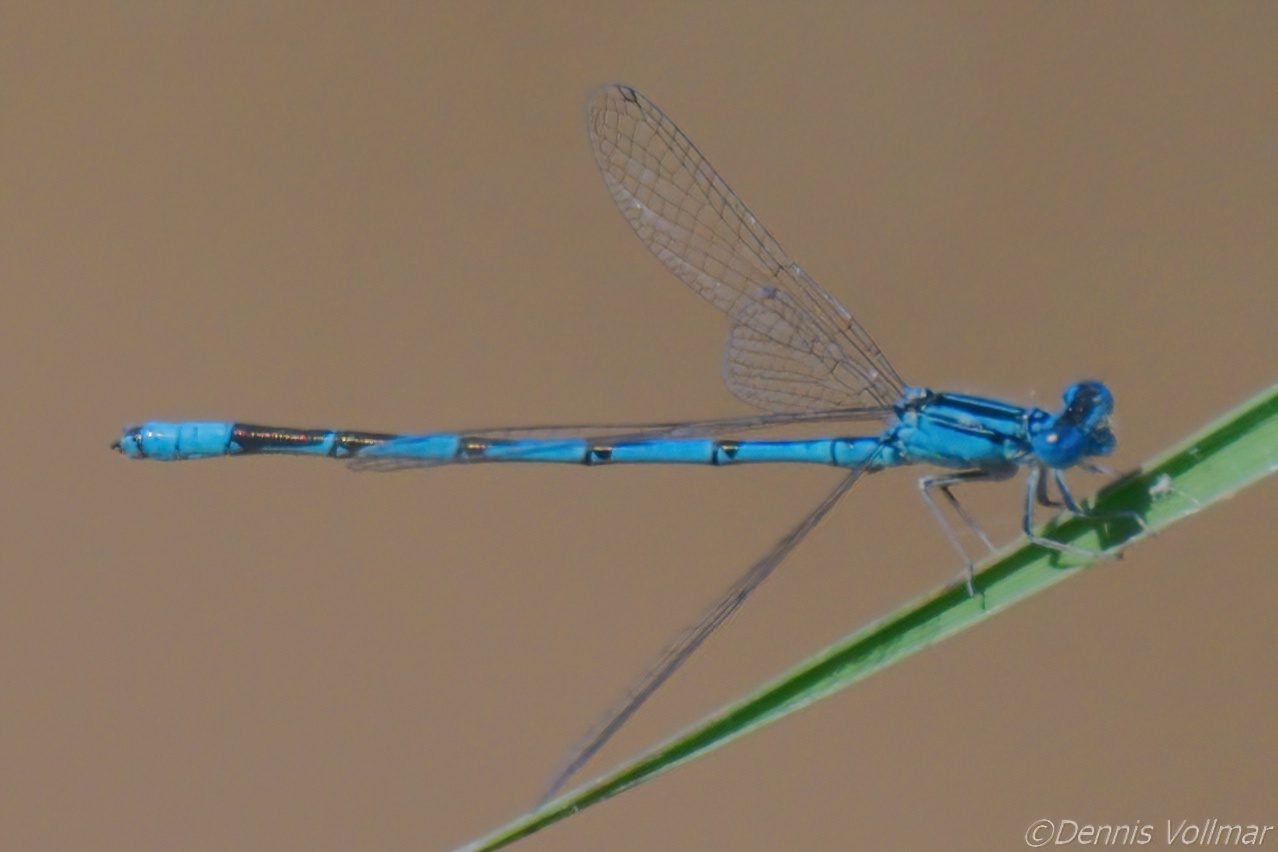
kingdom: Animalia
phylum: Arthropoda
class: Insecta
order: Odonata
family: Coenagrionidae
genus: Enallagma
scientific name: Enallagma basidens
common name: Double-striped bluet
